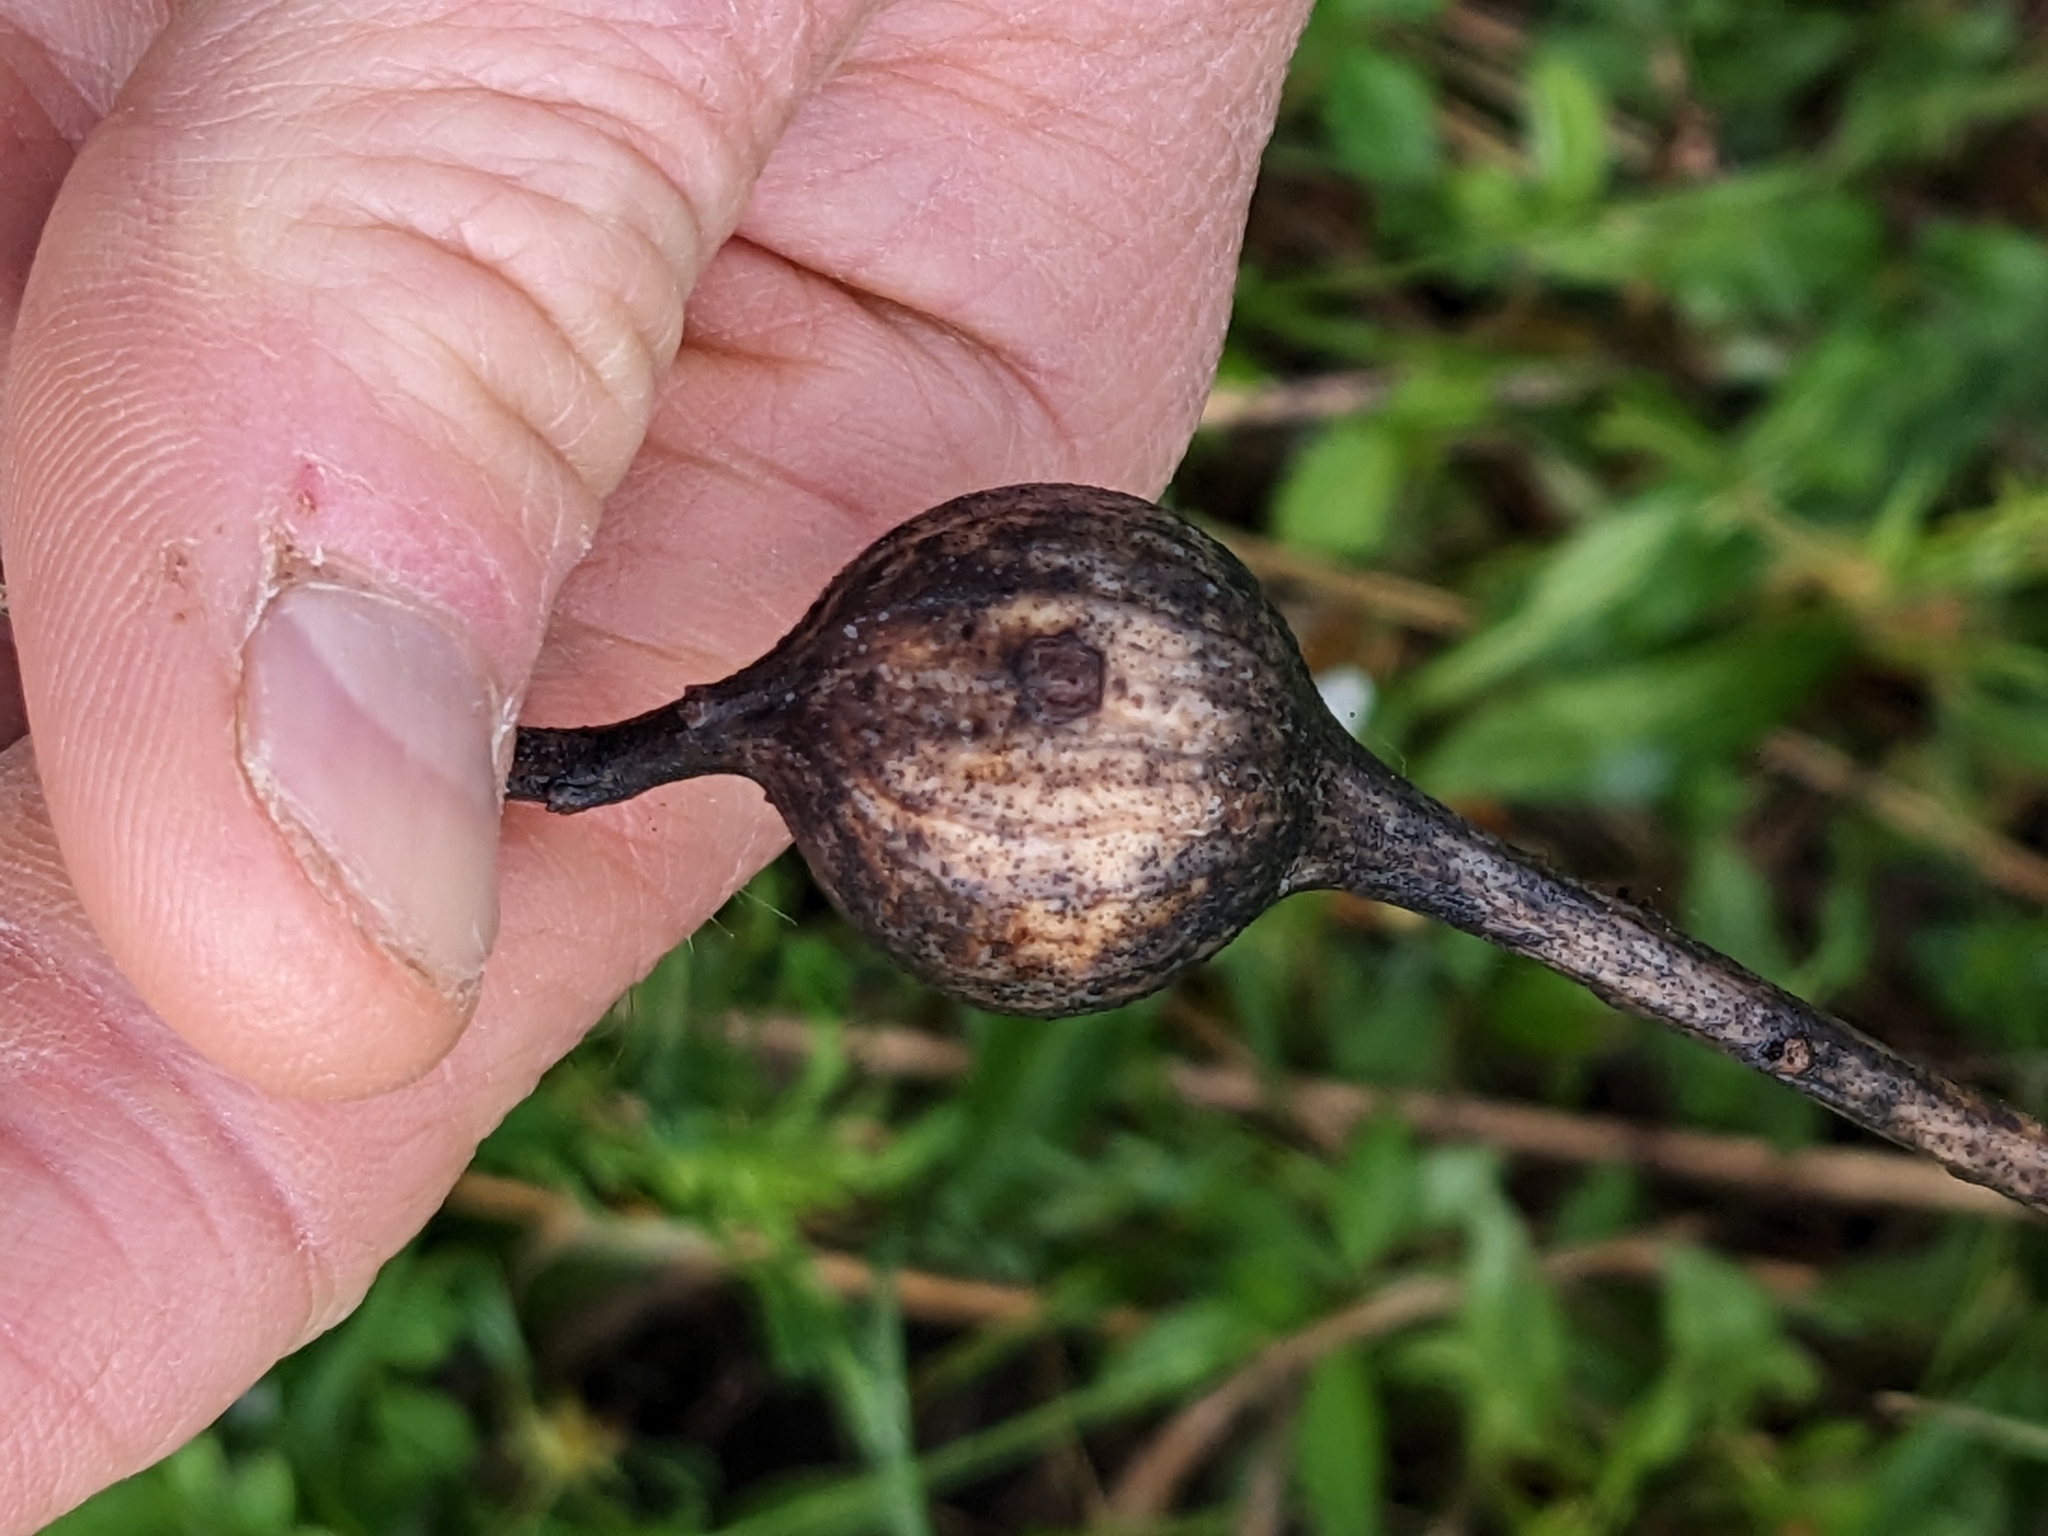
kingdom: Animalia
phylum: Arthropoda
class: Insecta
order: Diptera
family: Tephritidae
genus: Eurosta
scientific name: Eurosta solidaginis
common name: Goldenrod gall fly
